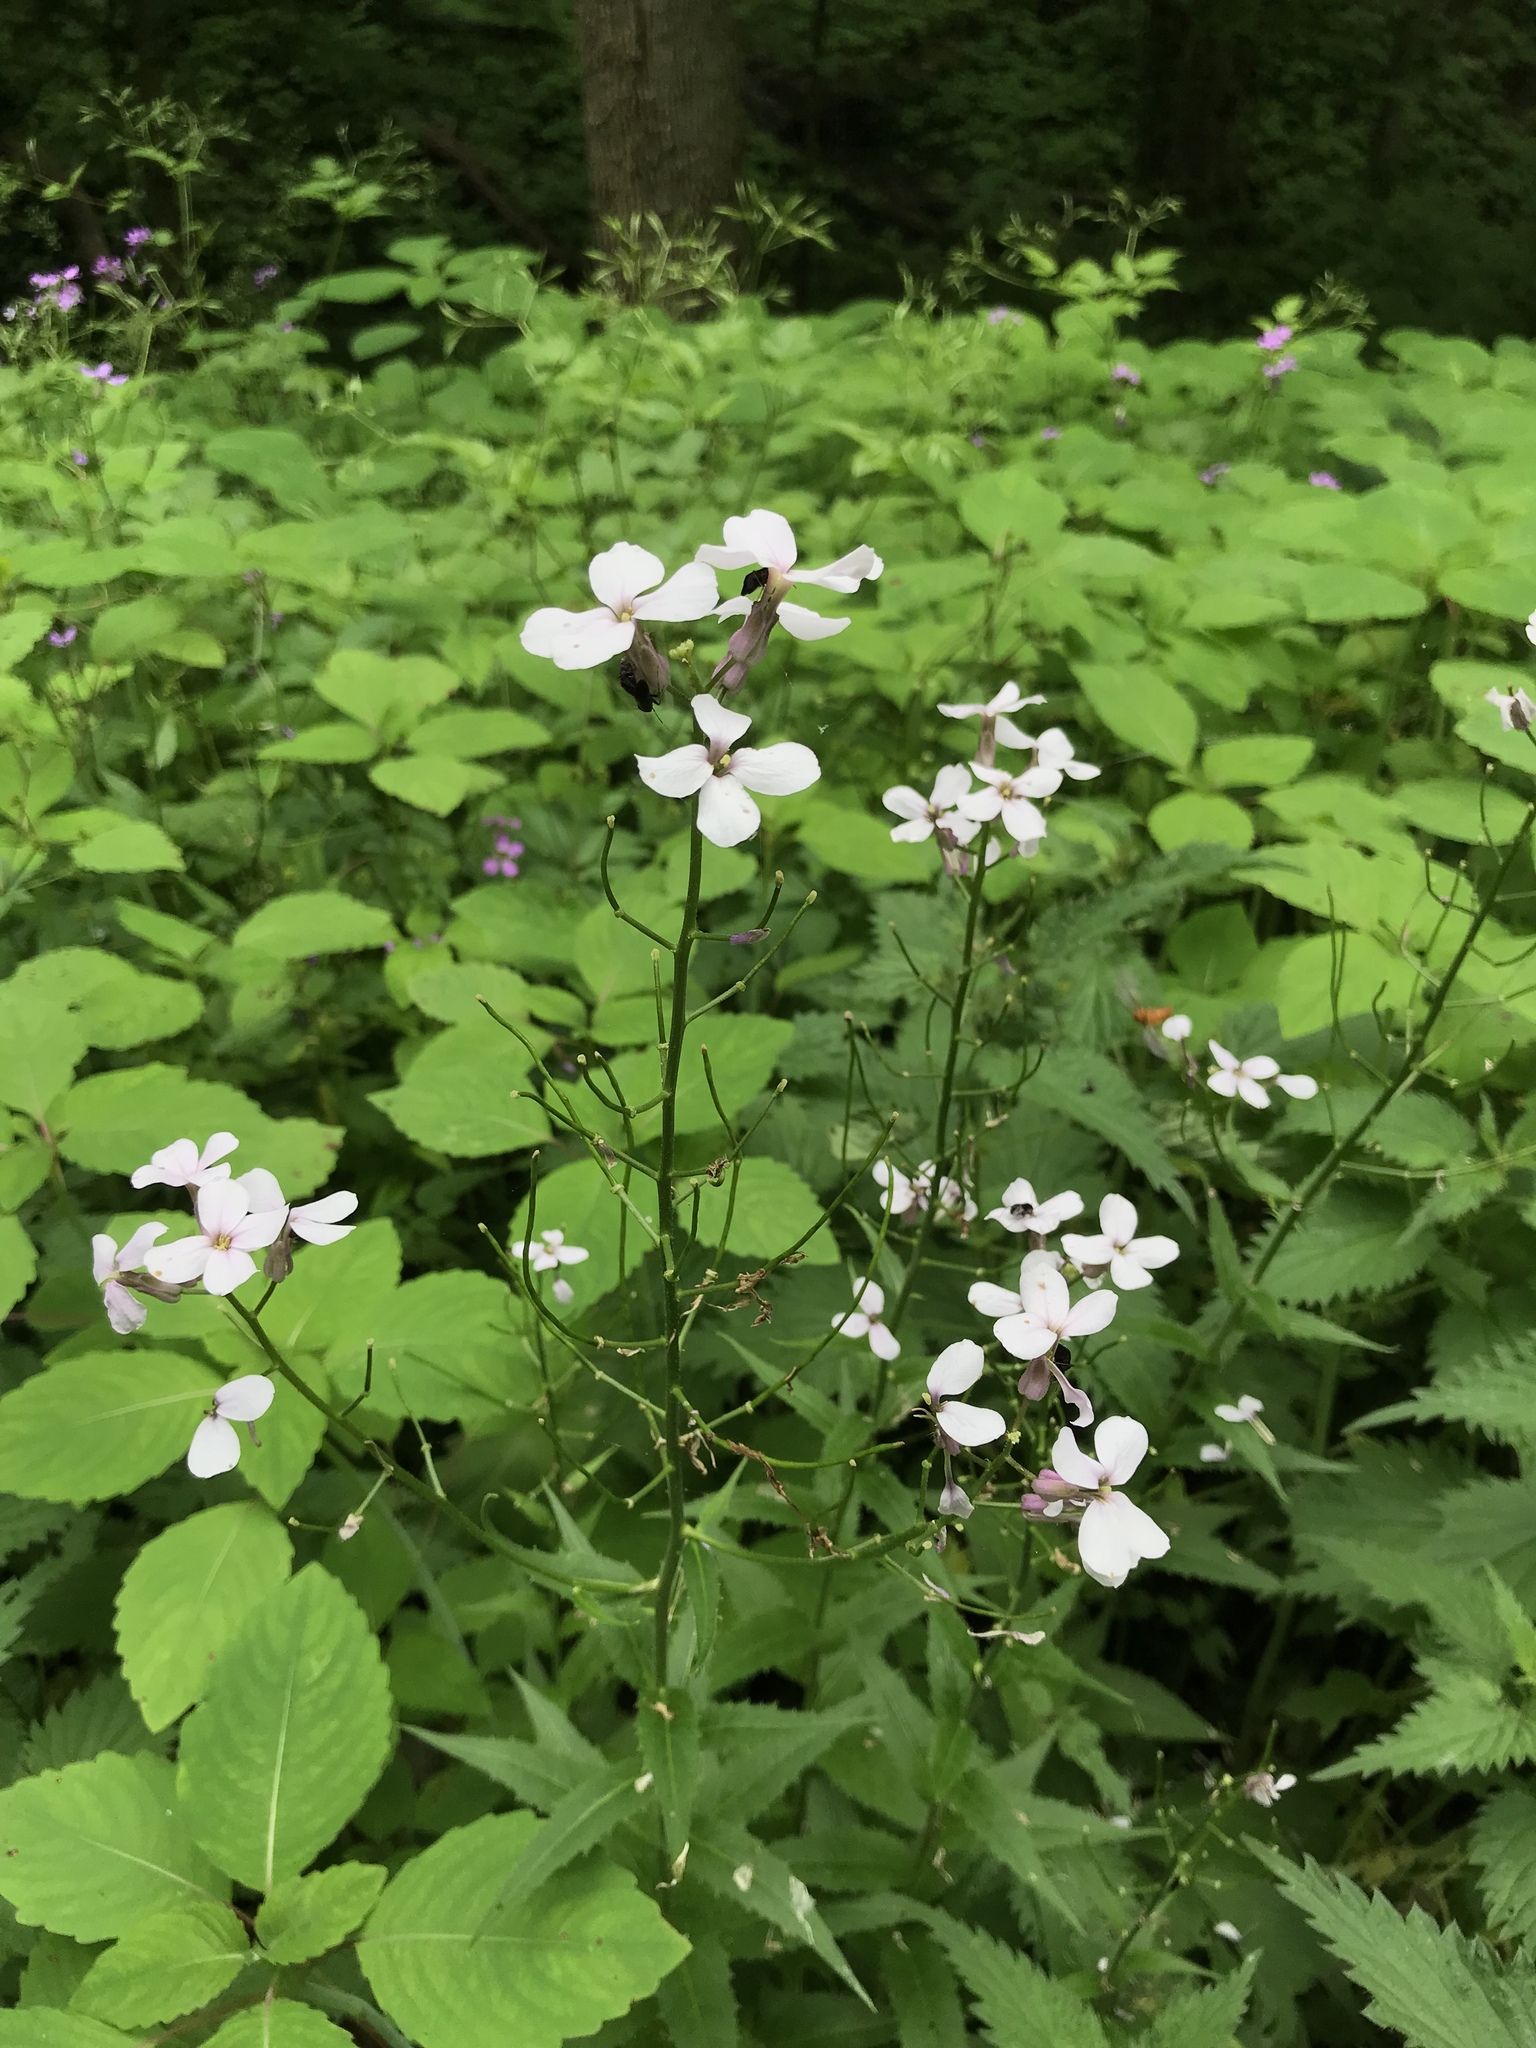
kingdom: Plantae
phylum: Tracheophyta
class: Magnoliopsida
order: Brassicales
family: Brassicaceae
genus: Hesperis
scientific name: Hesperis matronalis
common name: Dame's-violet
